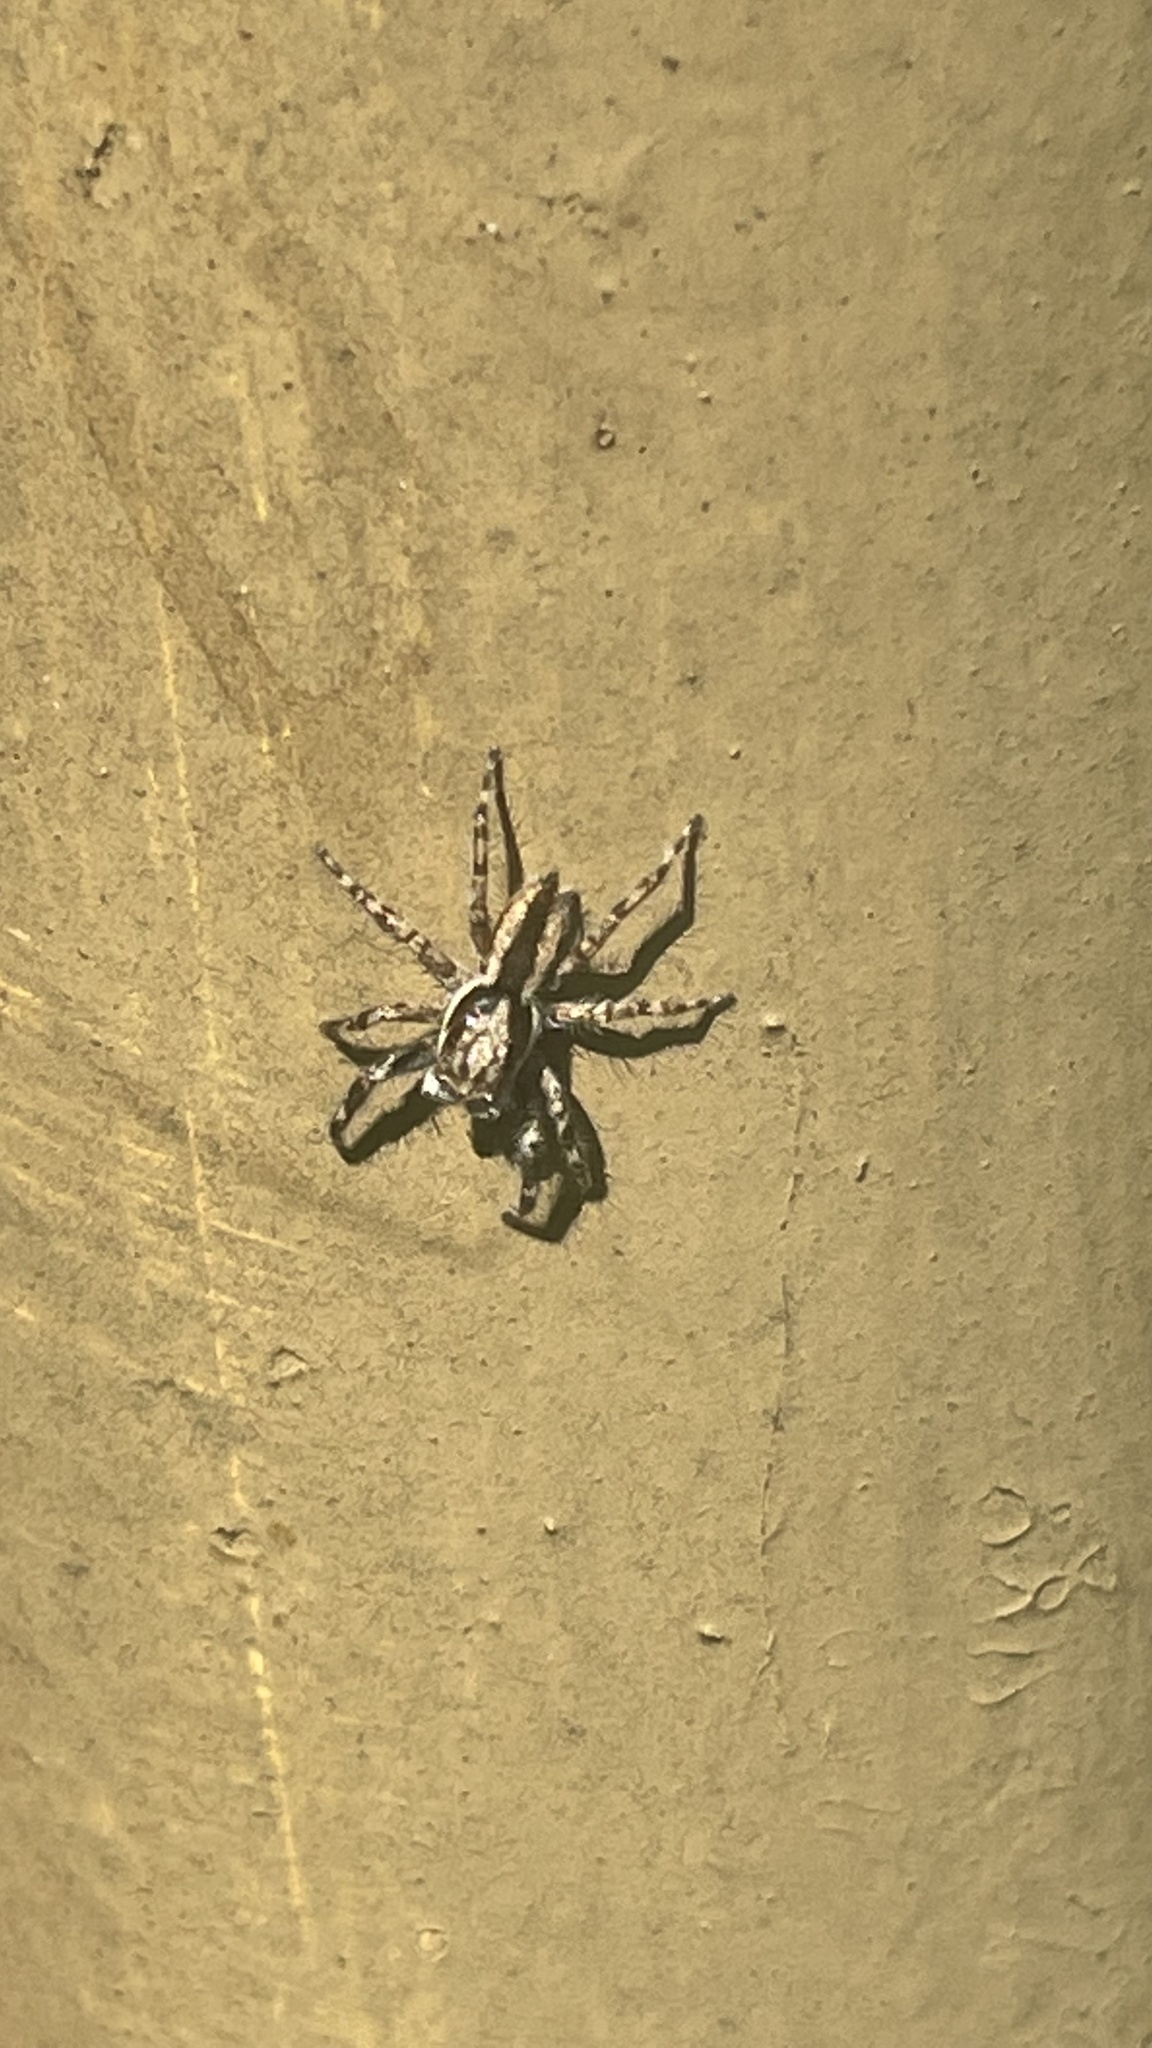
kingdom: Animalia
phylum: Arthropoda
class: Arachnida
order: Araneae
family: Salticidae
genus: Menemerus
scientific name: Menemerus bivittatus
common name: Gray wall jumper
